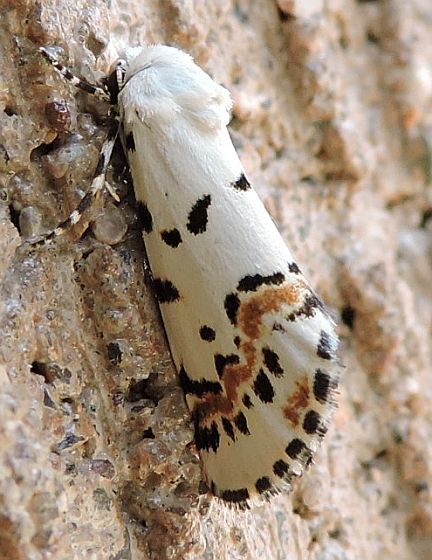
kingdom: Animalia
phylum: Arthropoda
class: Insecta
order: Lepidoptera
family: Noctuidae
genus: Grotella
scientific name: Grotella tricolor
